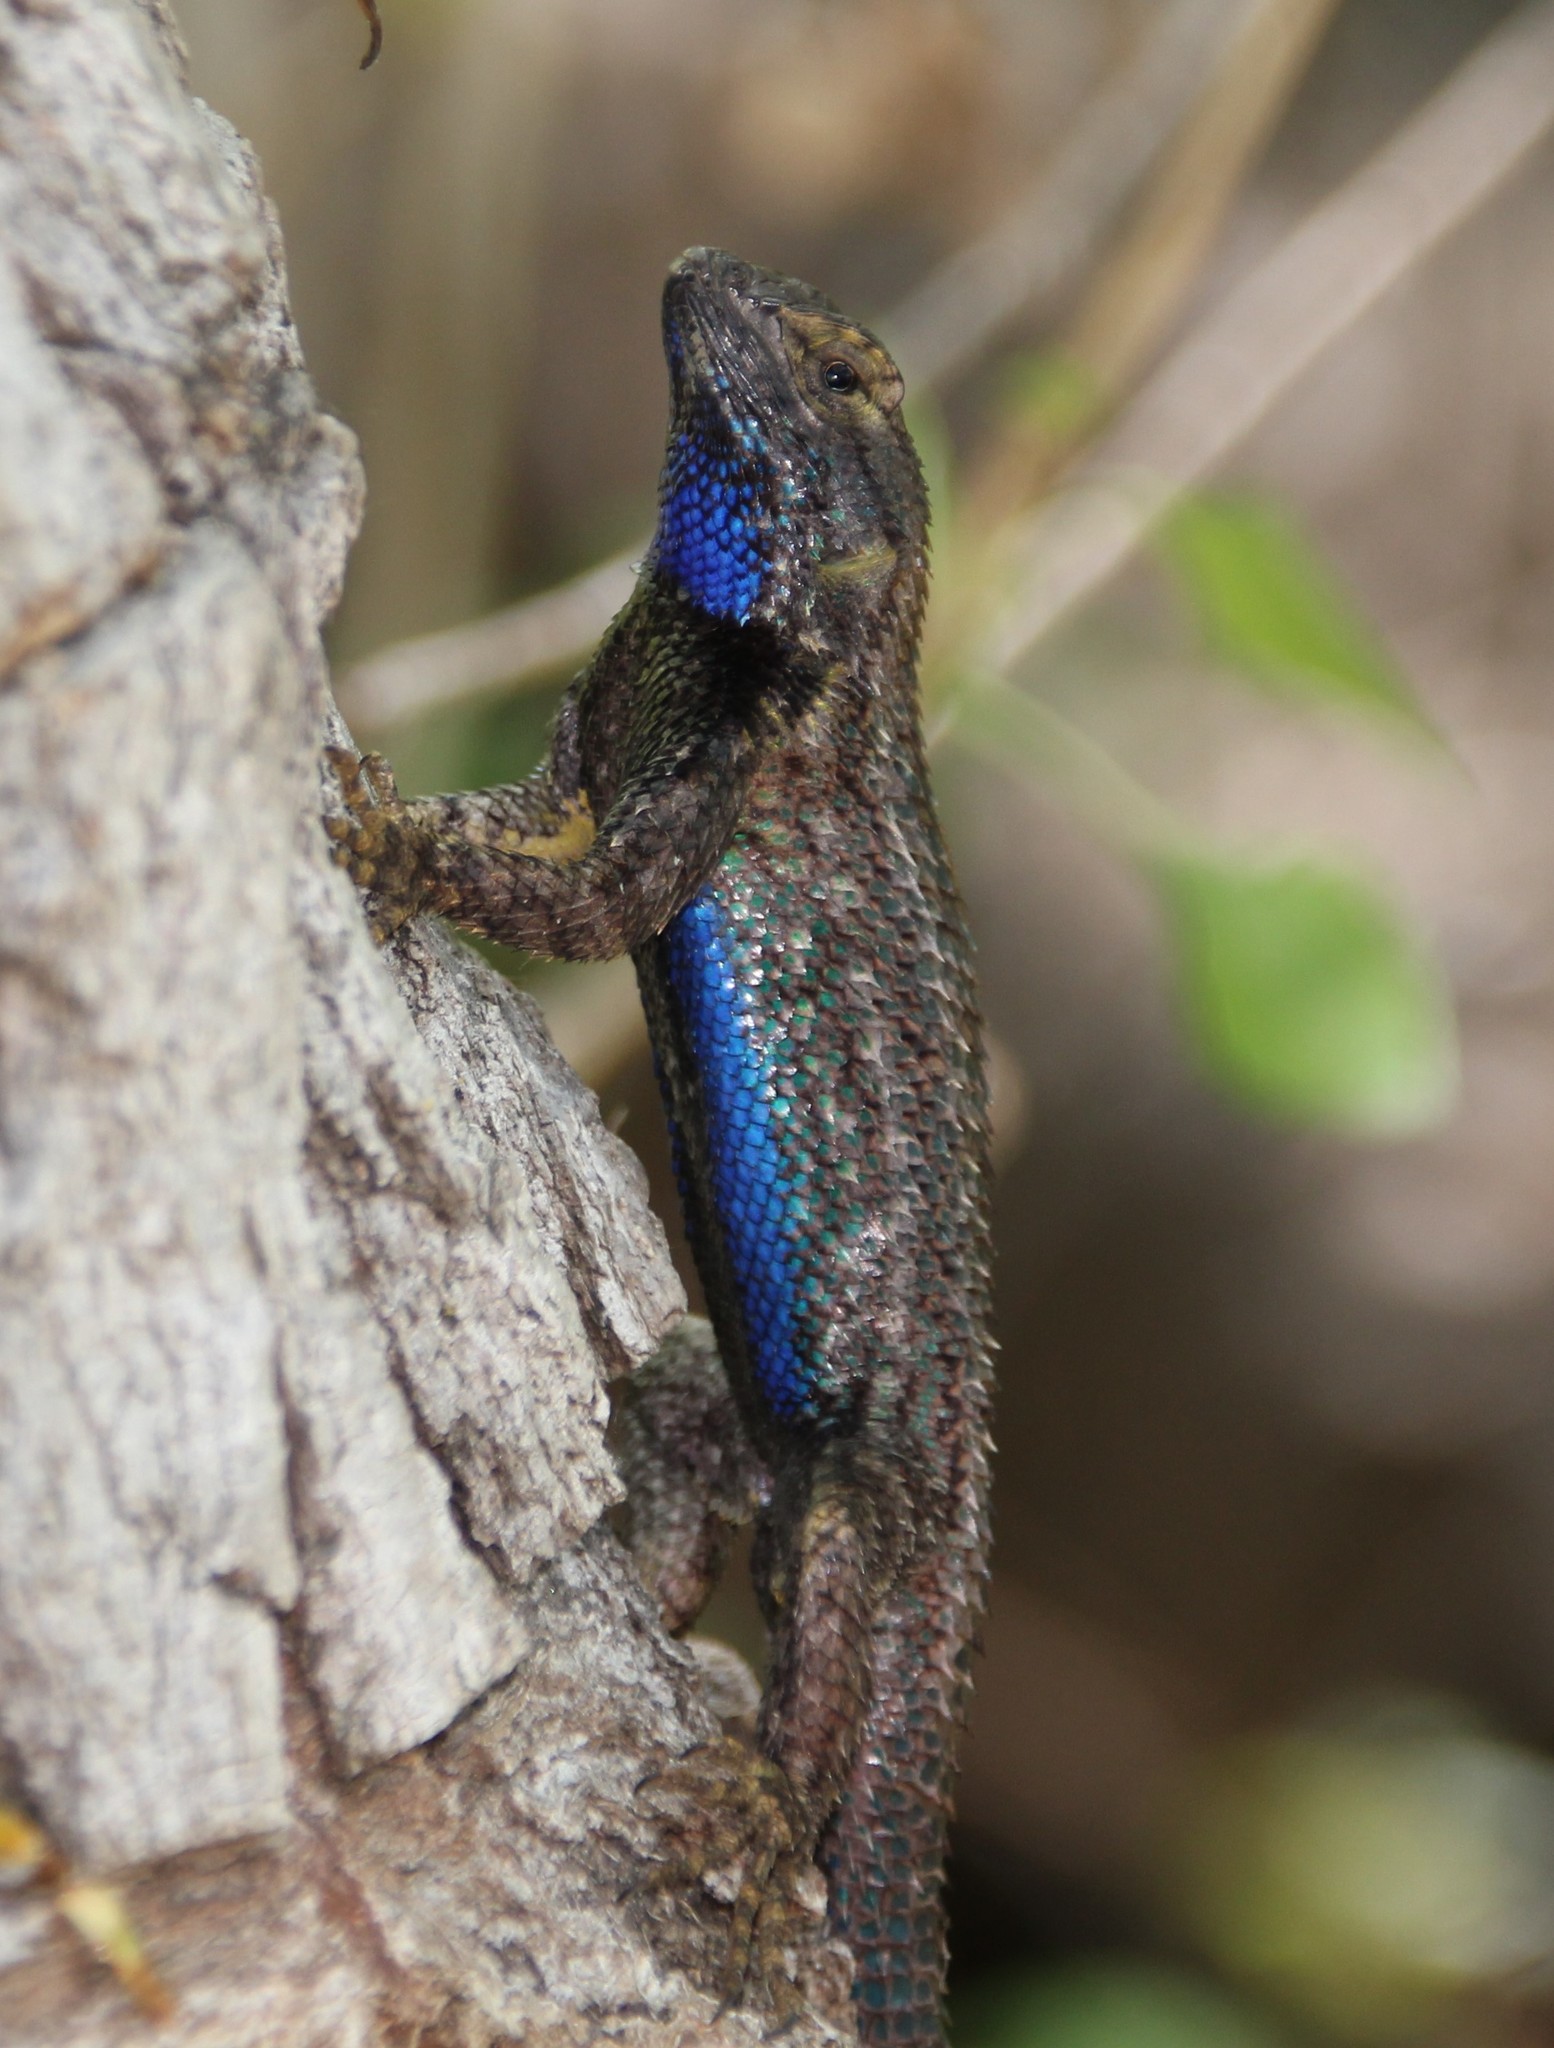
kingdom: Animalia
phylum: Chordata
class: Squamata
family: Phrynosomatidae
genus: Sceloporus
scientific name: Sceloporus occidentalis
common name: Western fence lizard
